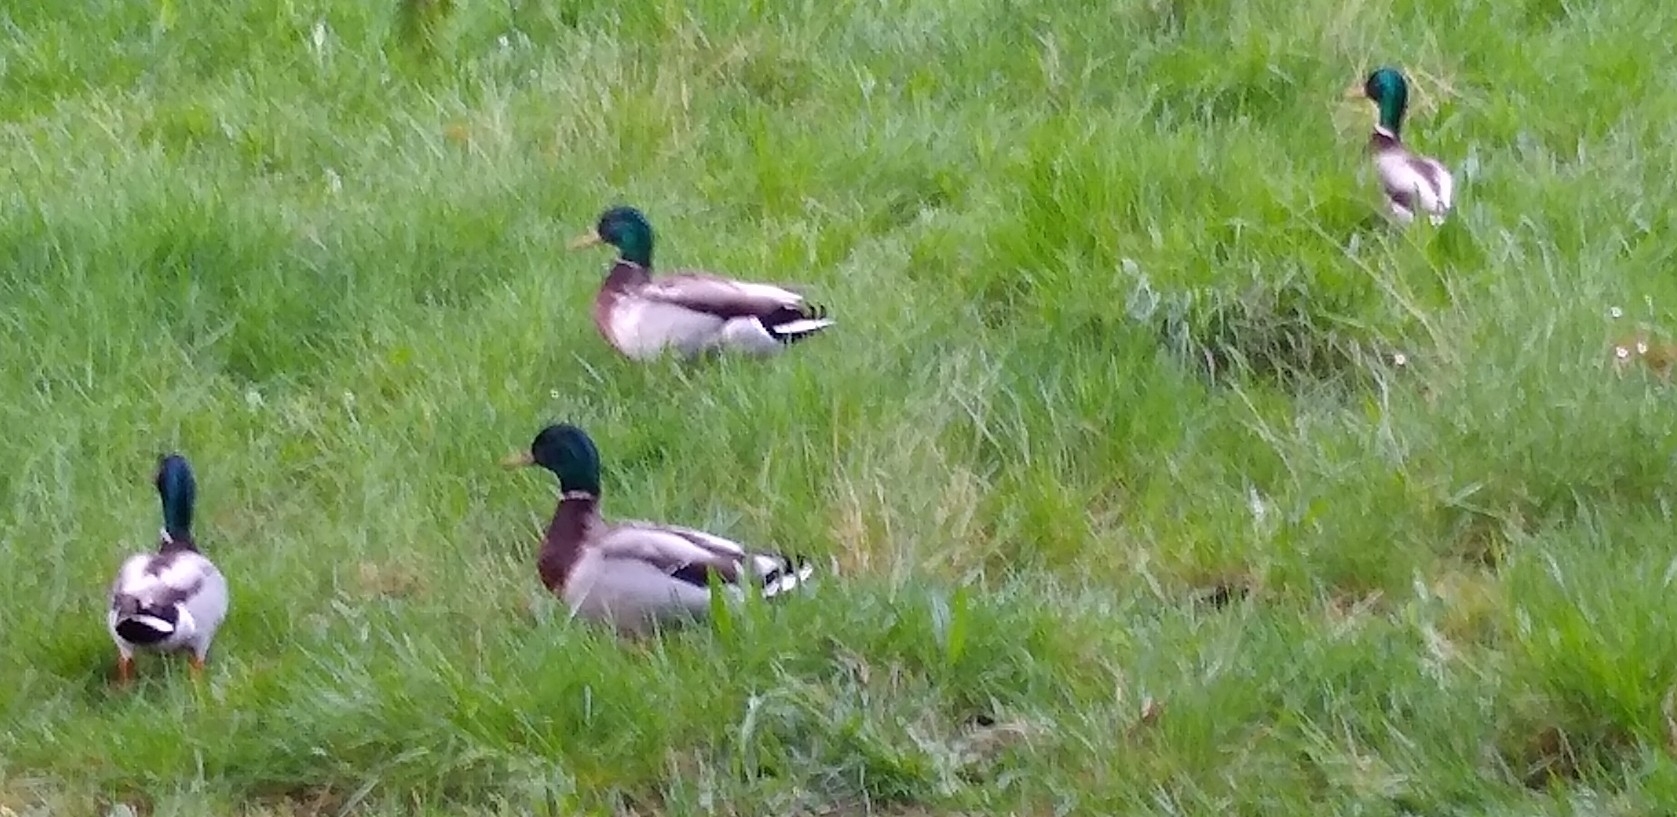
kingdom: Animalia
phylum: Chordata
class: Aves
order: Anseriformes
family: Anatidae
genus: Anas
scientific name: Anas platyrhynchos
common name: Mallard
